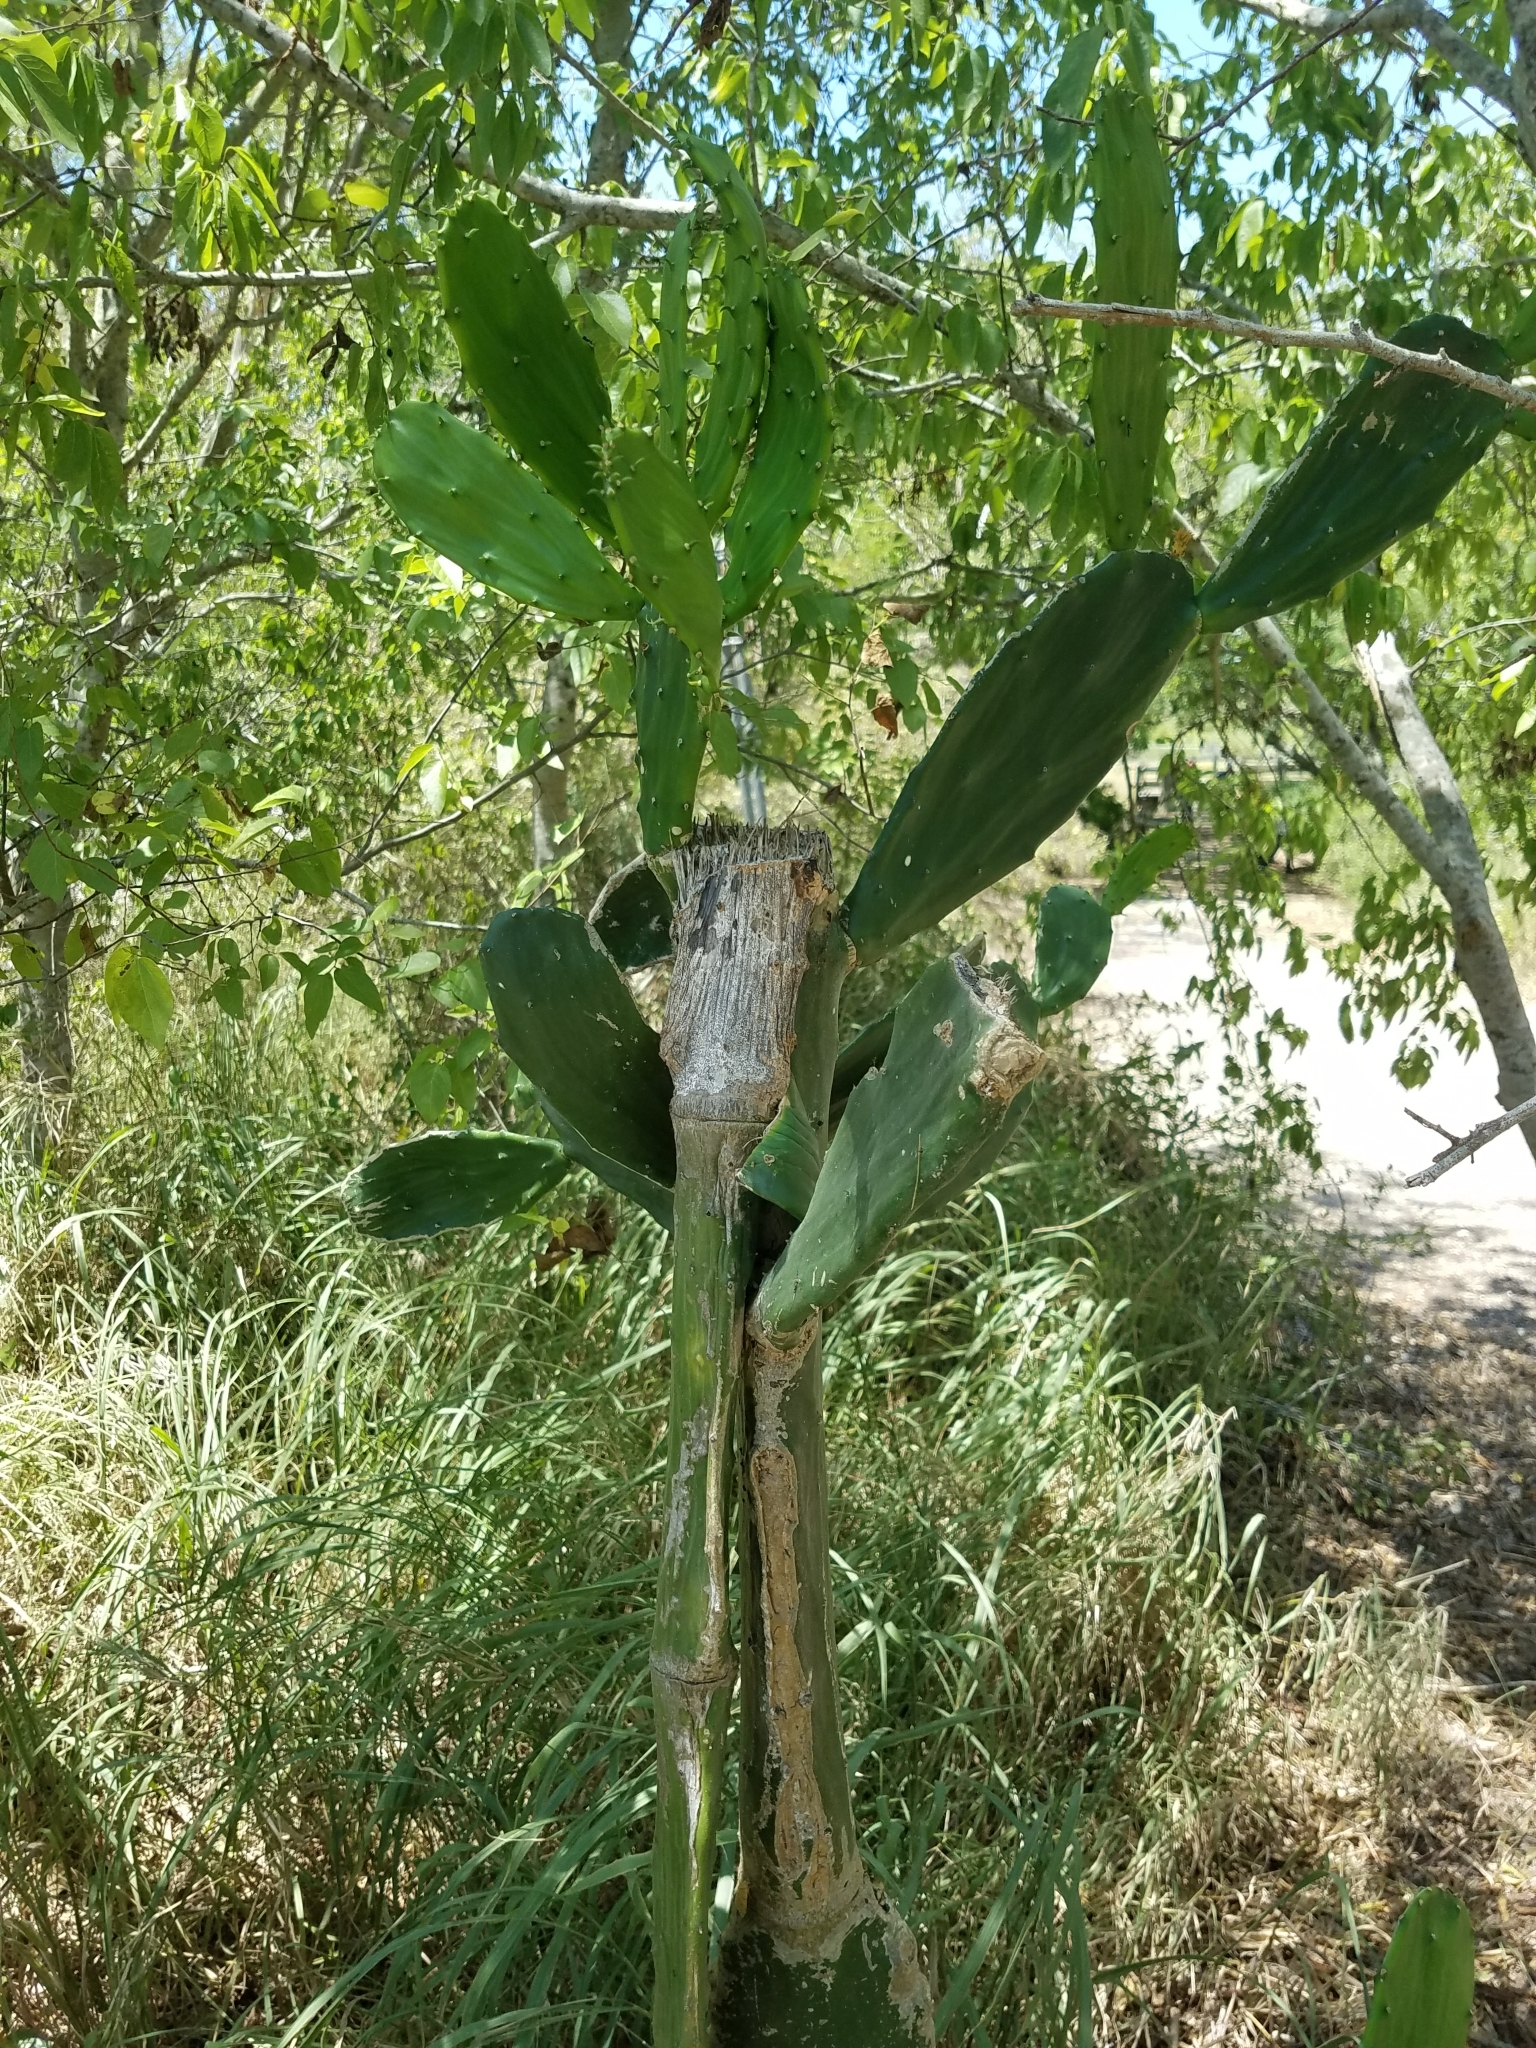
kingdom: Plantae
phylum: Tracheophyta
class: Magnoliopsida
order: Caryophyllales
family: Cactaceae
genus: Opuntia
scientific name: Opuntia cochenillifera
